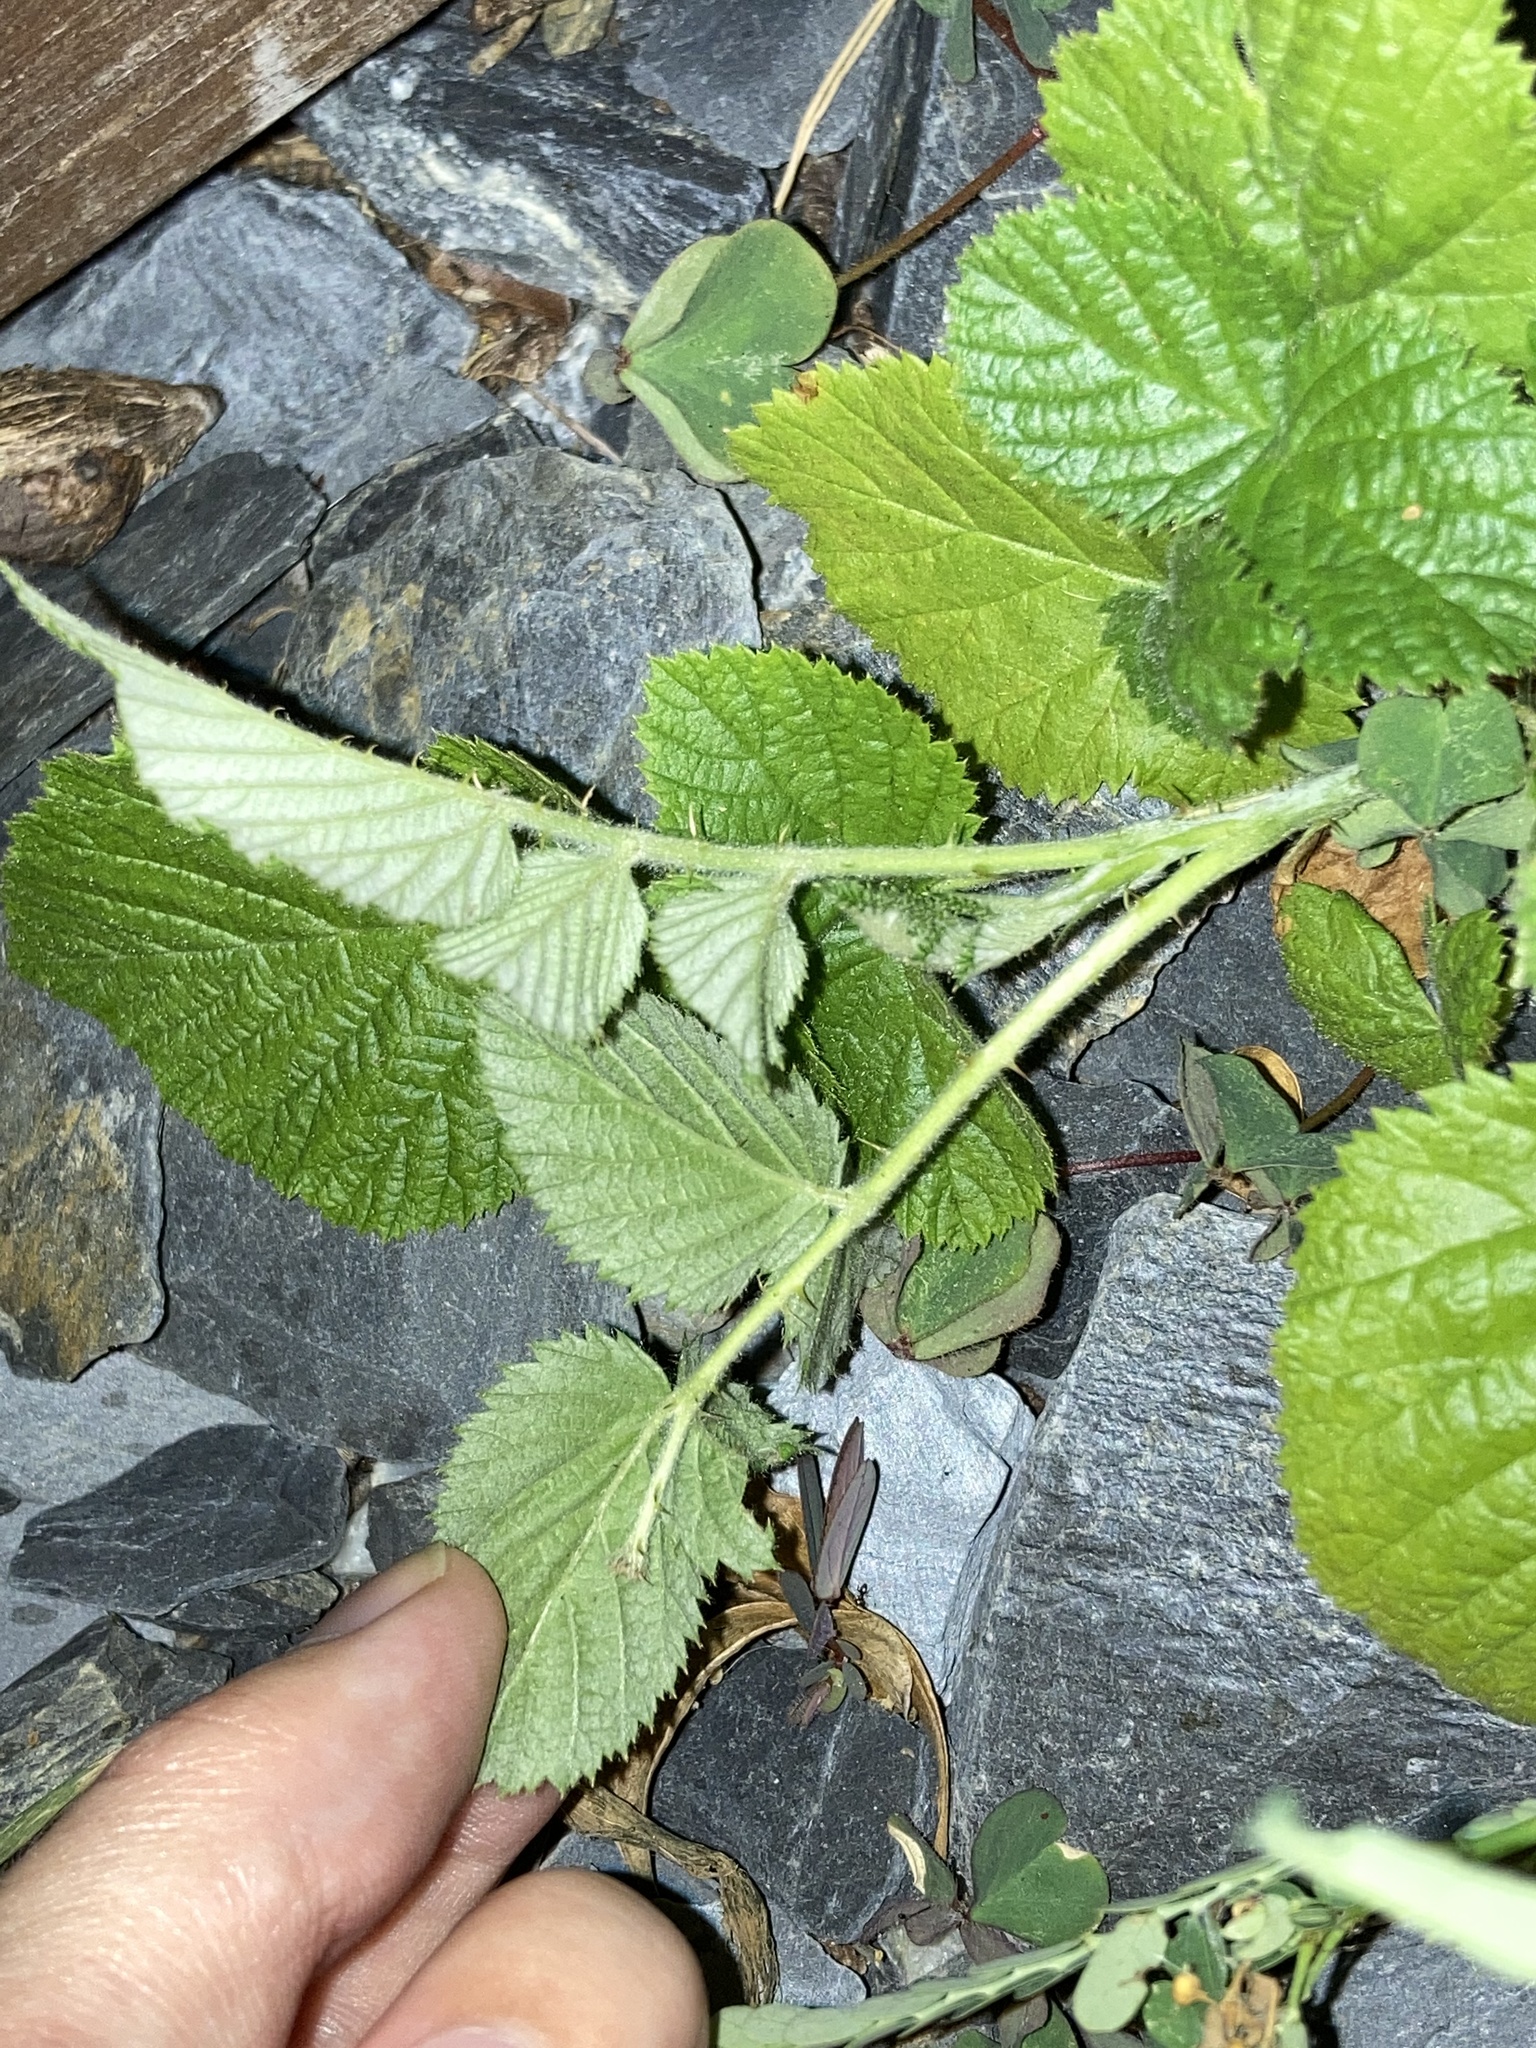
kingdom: Plantae
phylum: Tracheophyta
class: Magnoliopsida
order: Rosales
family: Rosaceae
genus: Rubus
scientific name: Rubus niveus
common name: Snowpeaks raspberry
